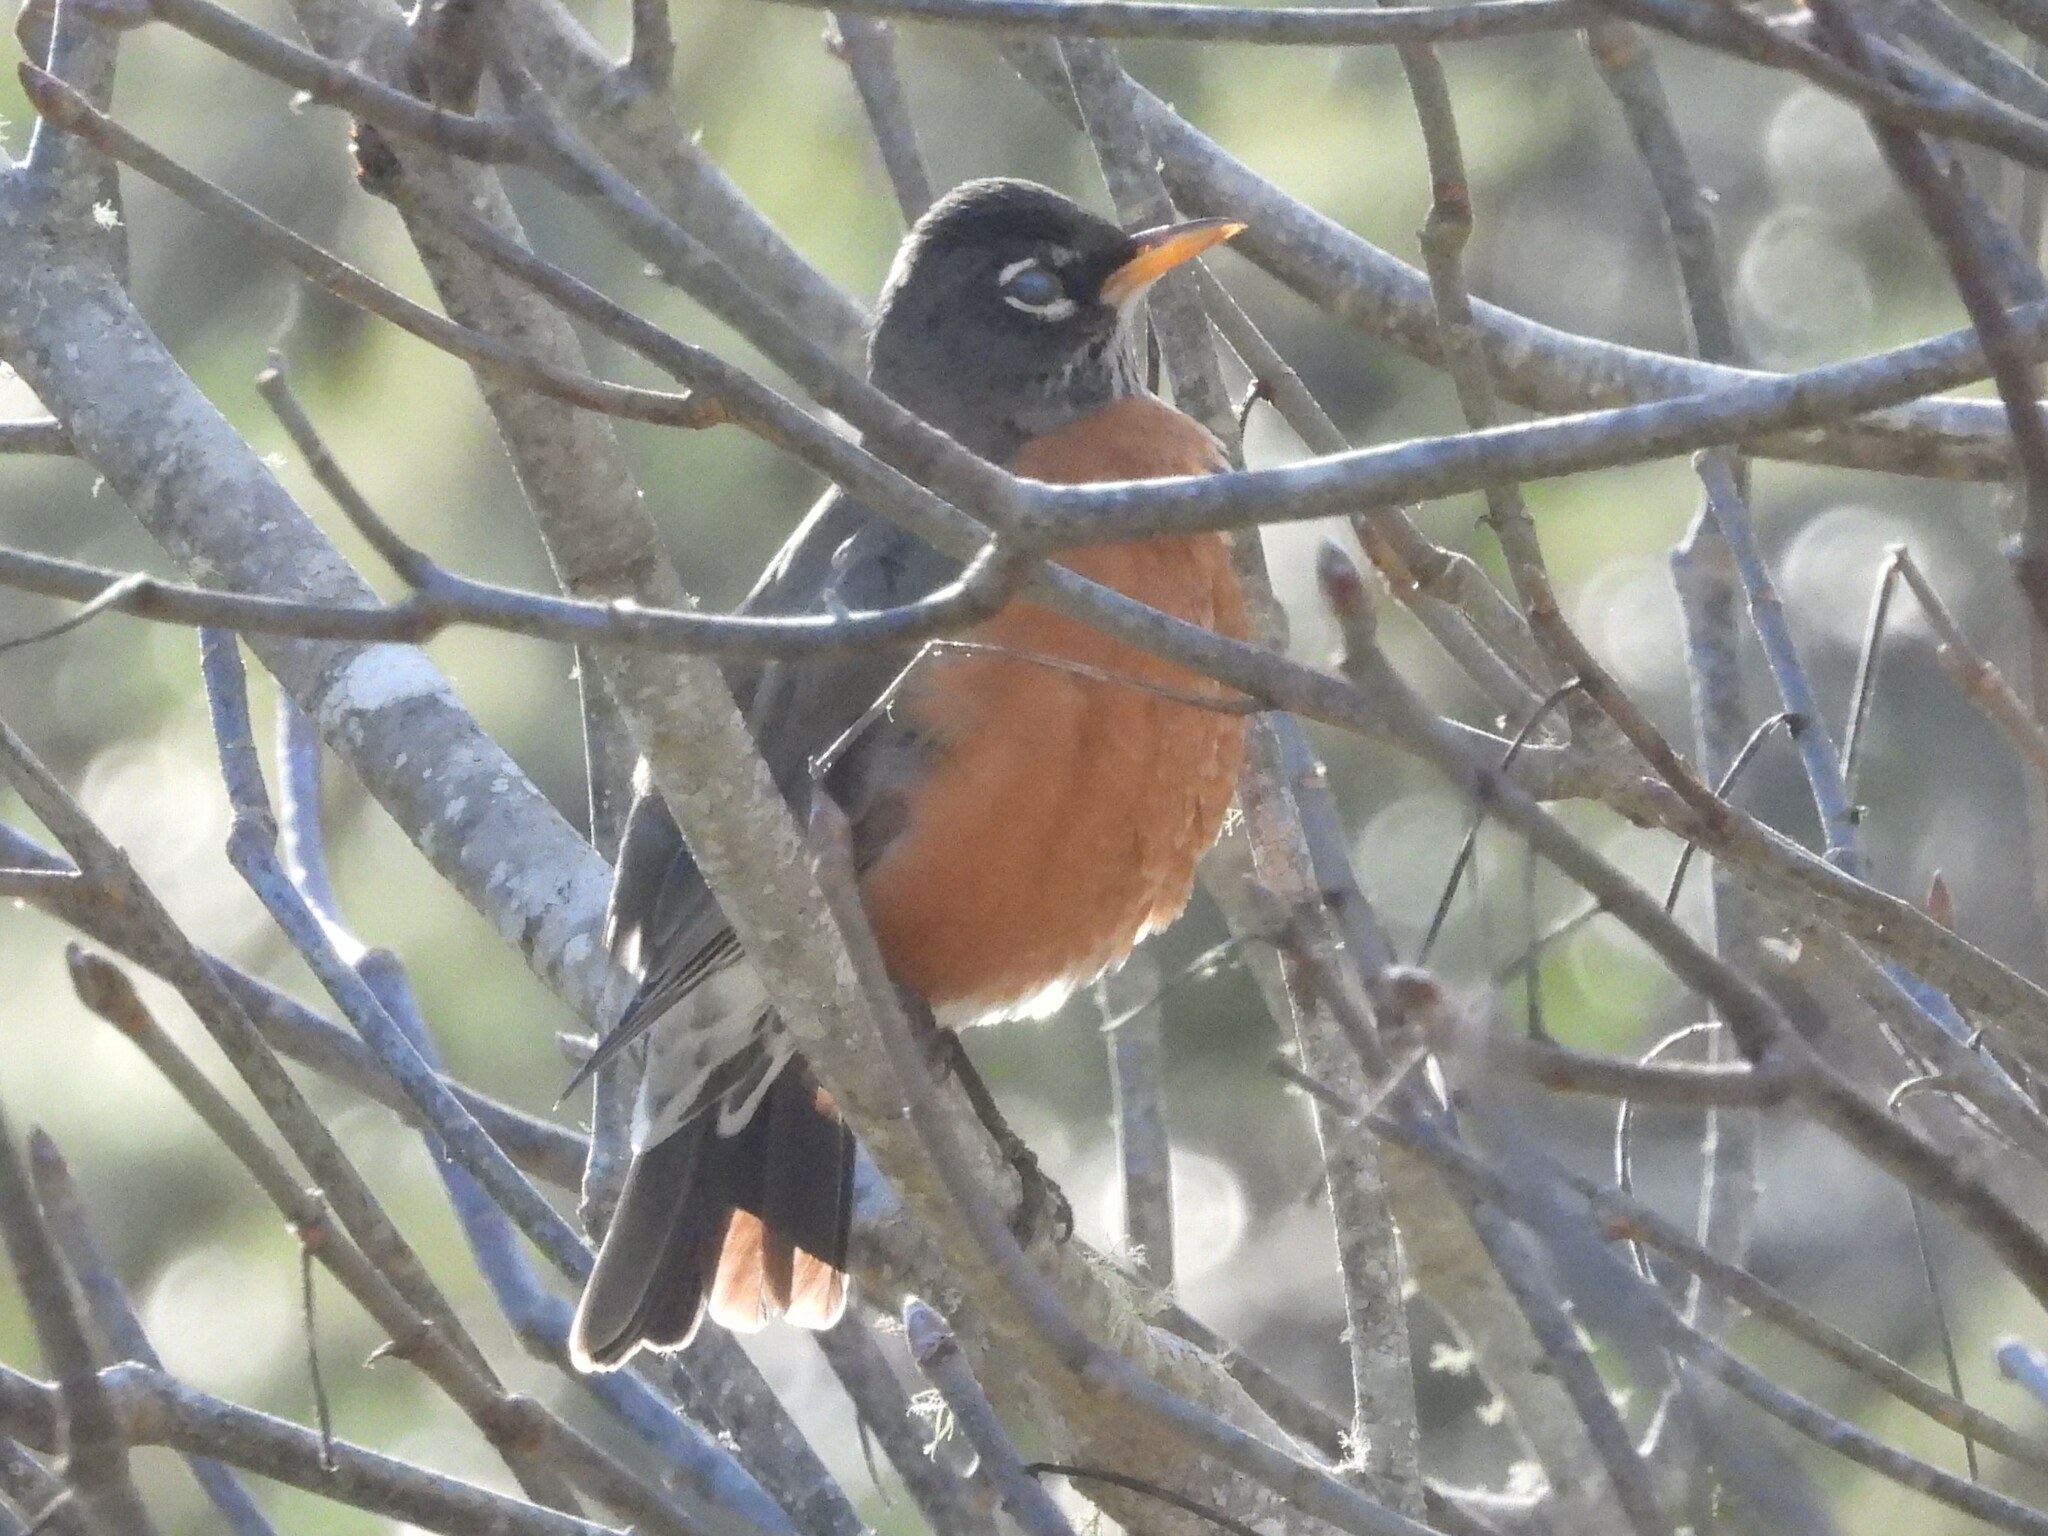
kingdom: Animalia
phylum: Chordata
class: Aves
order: Passeriformes
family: Turdidae
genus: Turdus
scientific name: Turdus migratorius
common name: American robin
